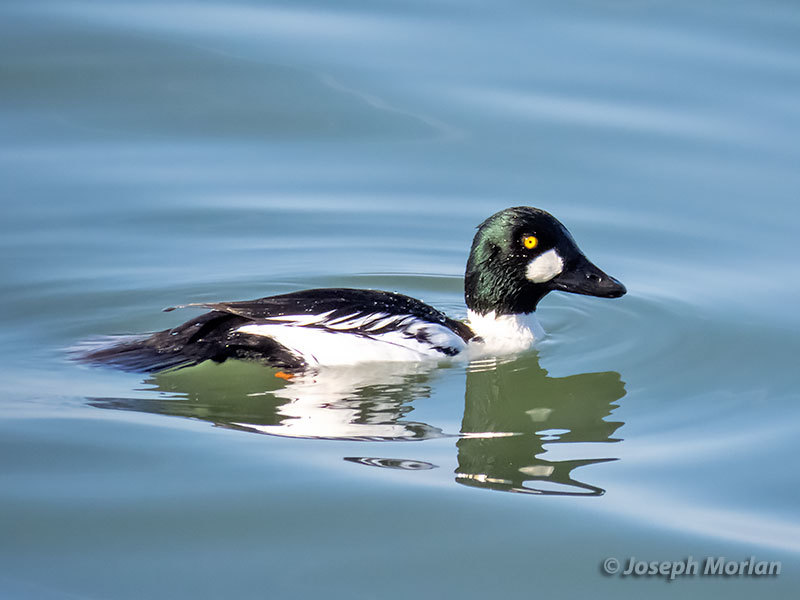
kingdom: Animalia
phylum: Chordata
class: Aves
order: Anseriformes
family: Anatidae
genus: Bucephala
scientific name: Bucephala clangula
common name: Common goldeneye
